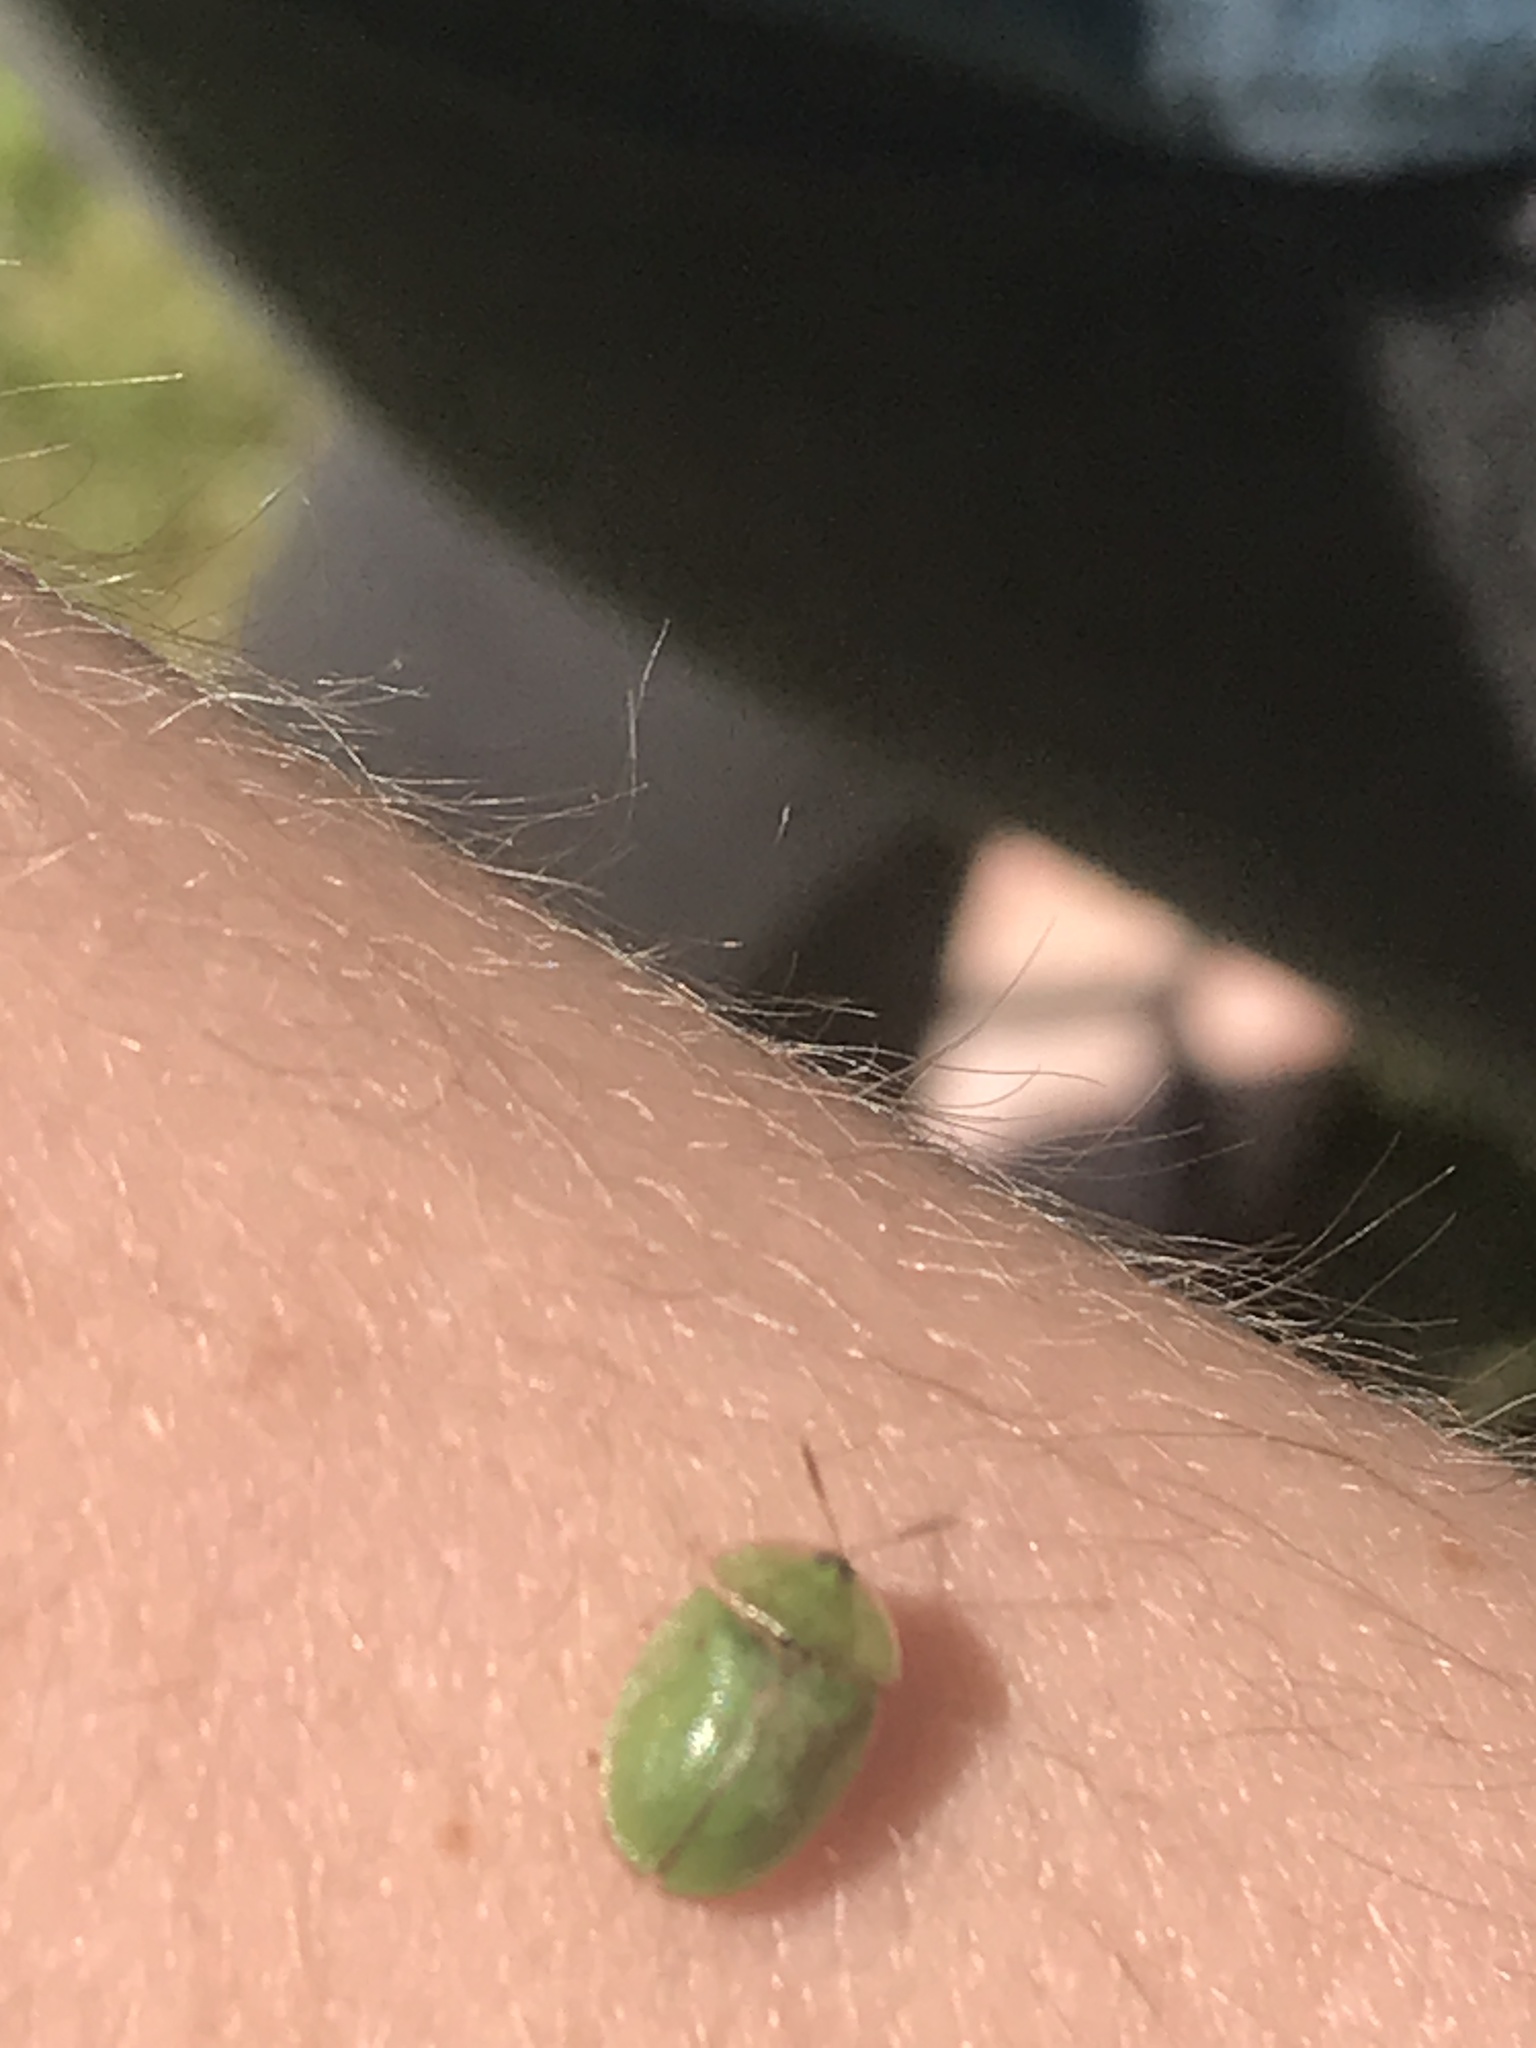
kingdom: Animalia
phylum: Arthropoda
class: Insecta
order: Coleoptera
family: Chrysomelidae
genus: Cassida
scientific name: Cassida rubiginosa
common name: Thistle tortoise beetle
